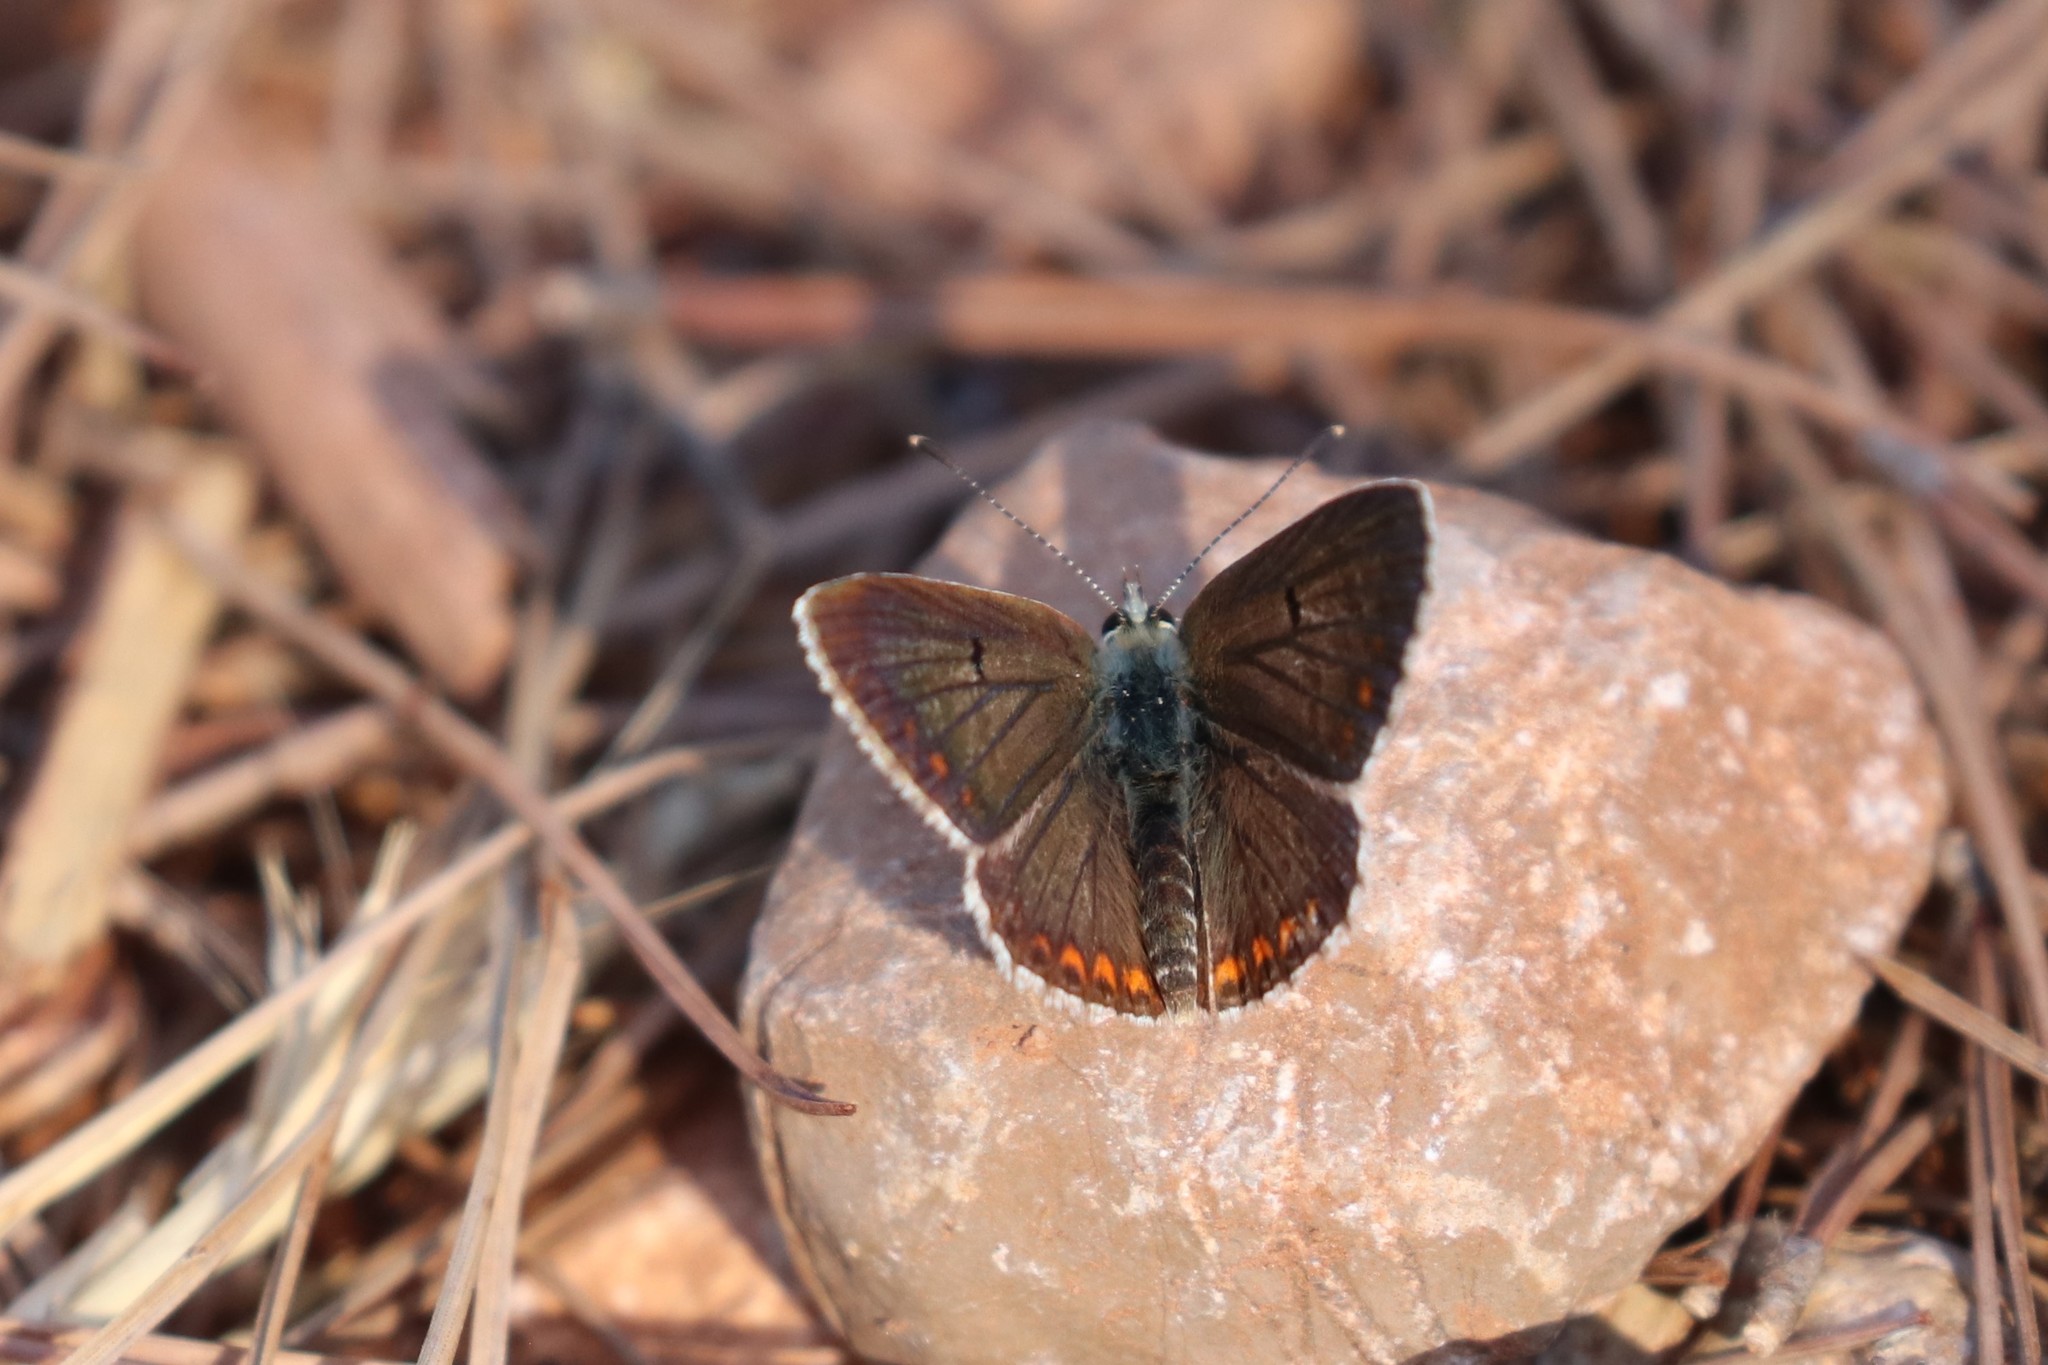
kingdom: Animalia
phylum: Arthropoda
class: Insecta
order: Lepidoptera
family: Lycaenidae
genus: Aricia
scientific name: Aricia agestis
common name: Brown argus
